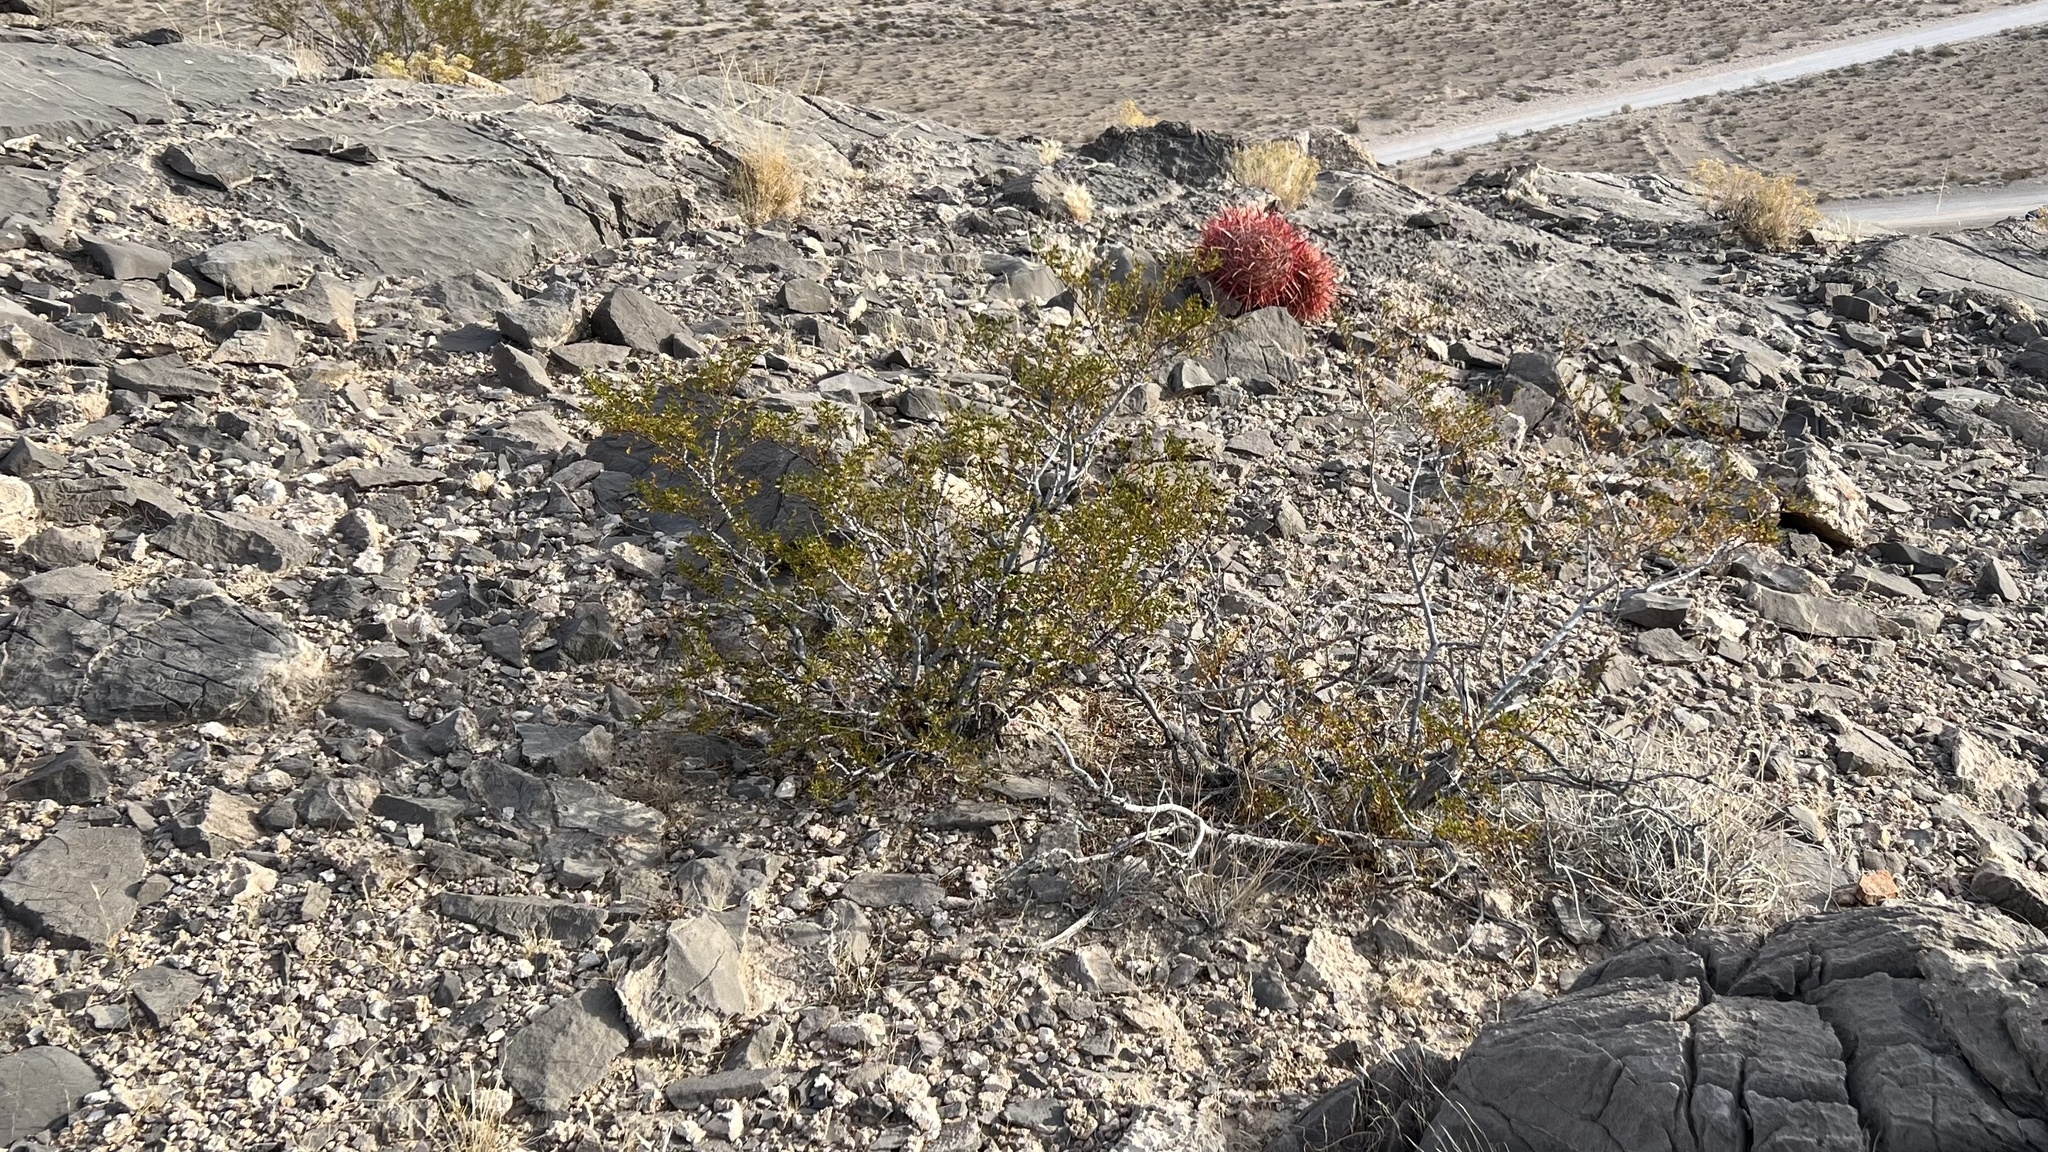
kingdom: Plantae
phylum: Tracheophyta
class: Magnoliopsida
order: Zygophyllales
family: Zygophyllaceae
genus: Larrea
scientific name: Larrea tridentata
